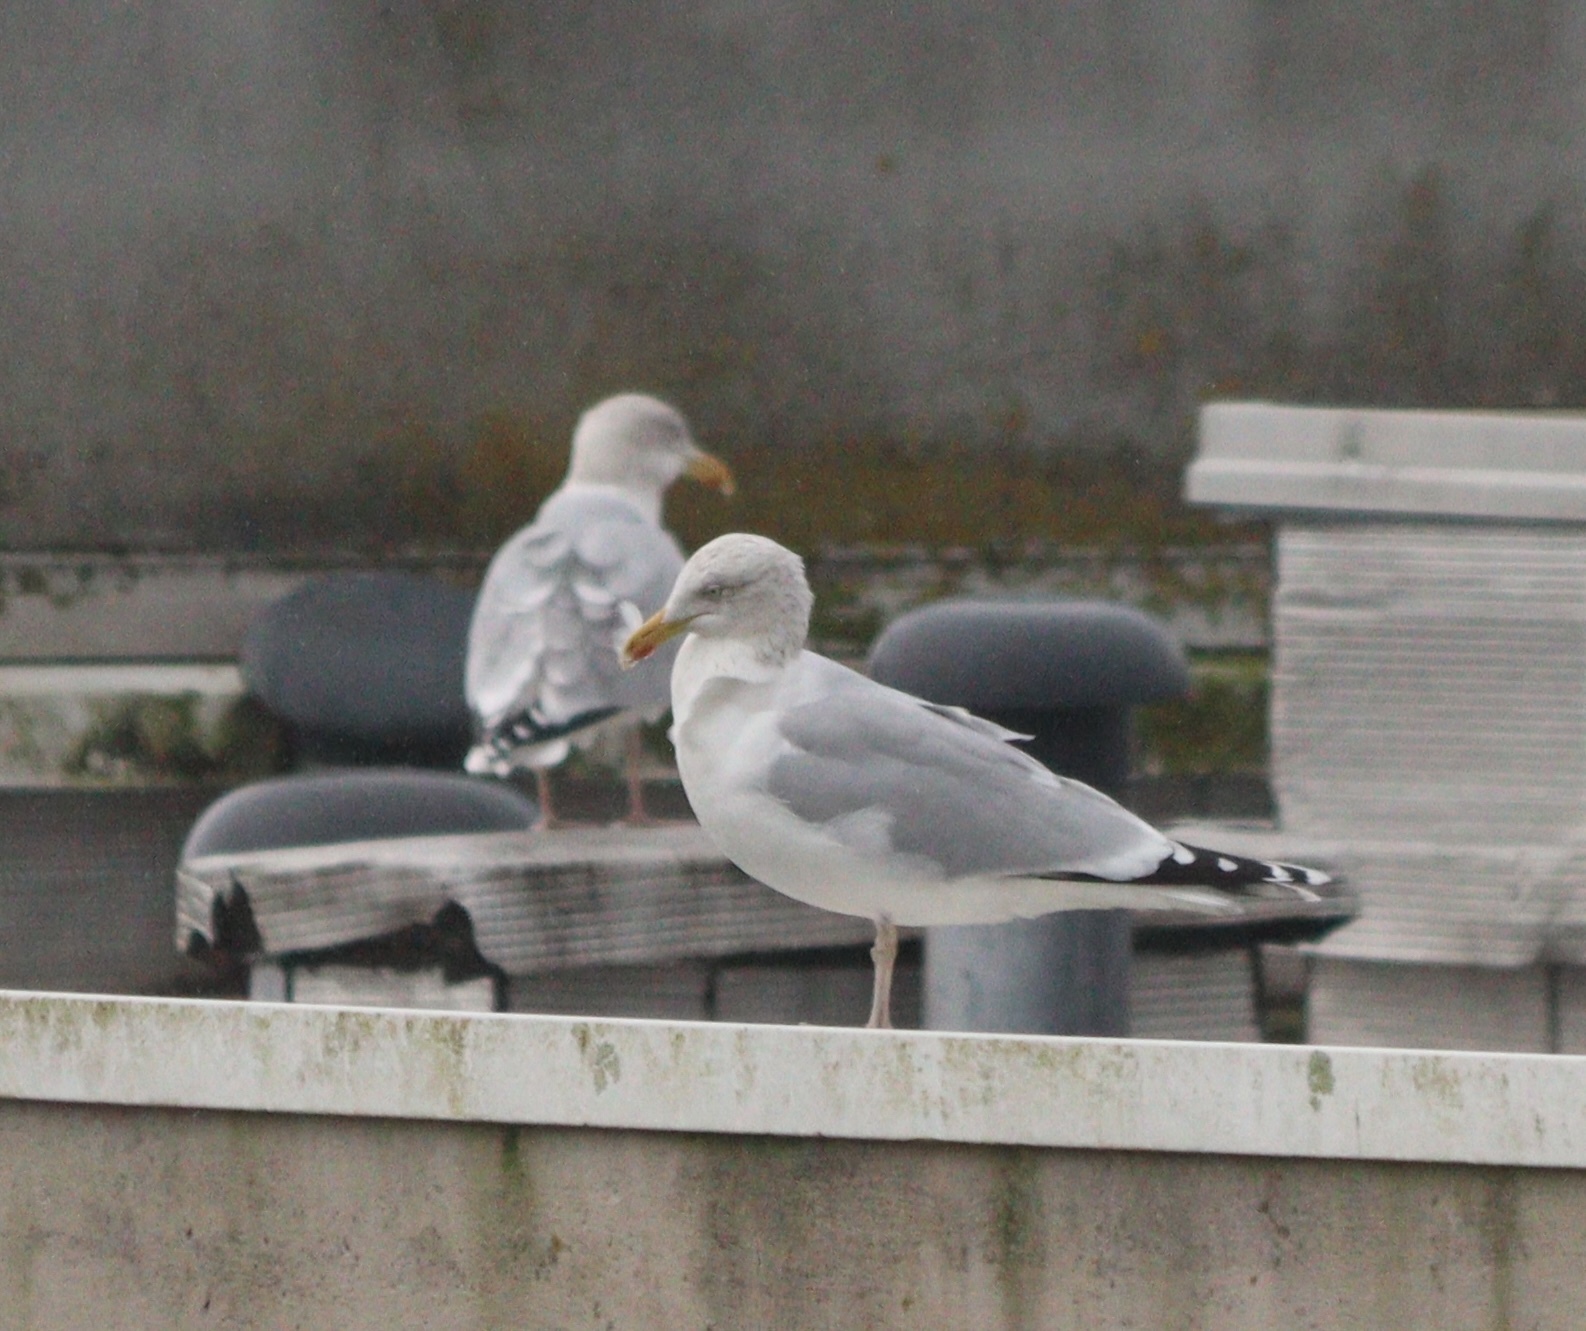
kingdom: Animalia
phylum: Chordata
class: Aves
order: Charadriiformes
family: Laridae
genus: Larus
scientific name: Larus argentatus
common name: Herring gull
